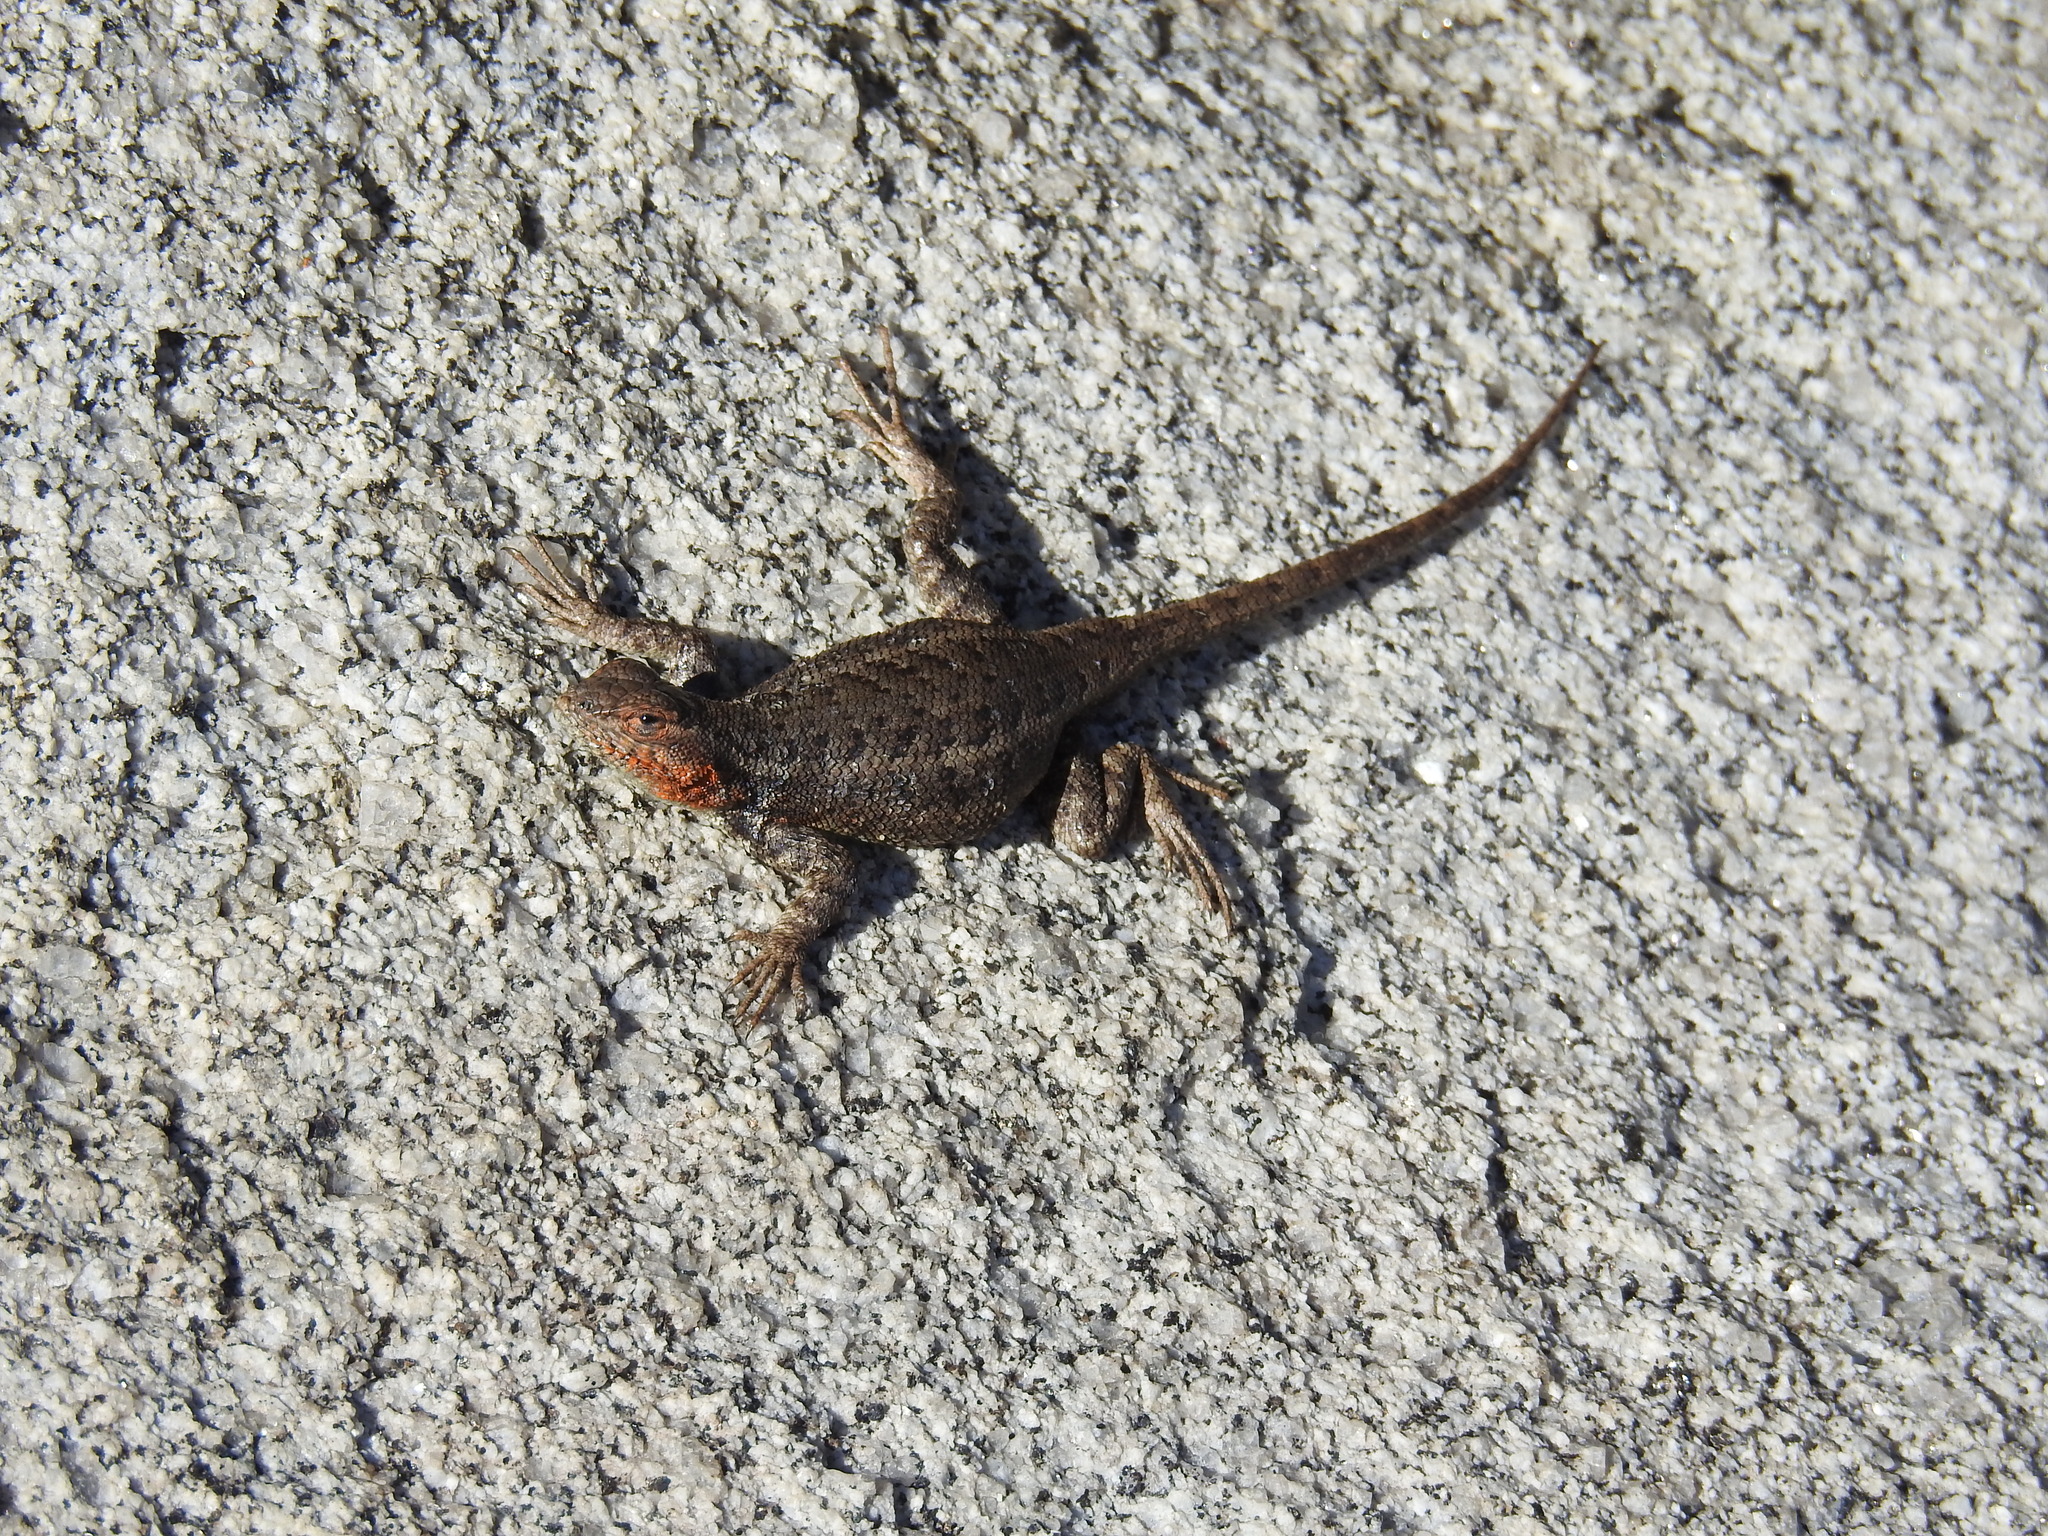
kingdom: Animalia
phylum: Chordata
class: Squamata
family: Phrynosomatidae
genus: Sceloporus
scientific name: Sceloporus graciosus
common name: Sagebrush lizard
